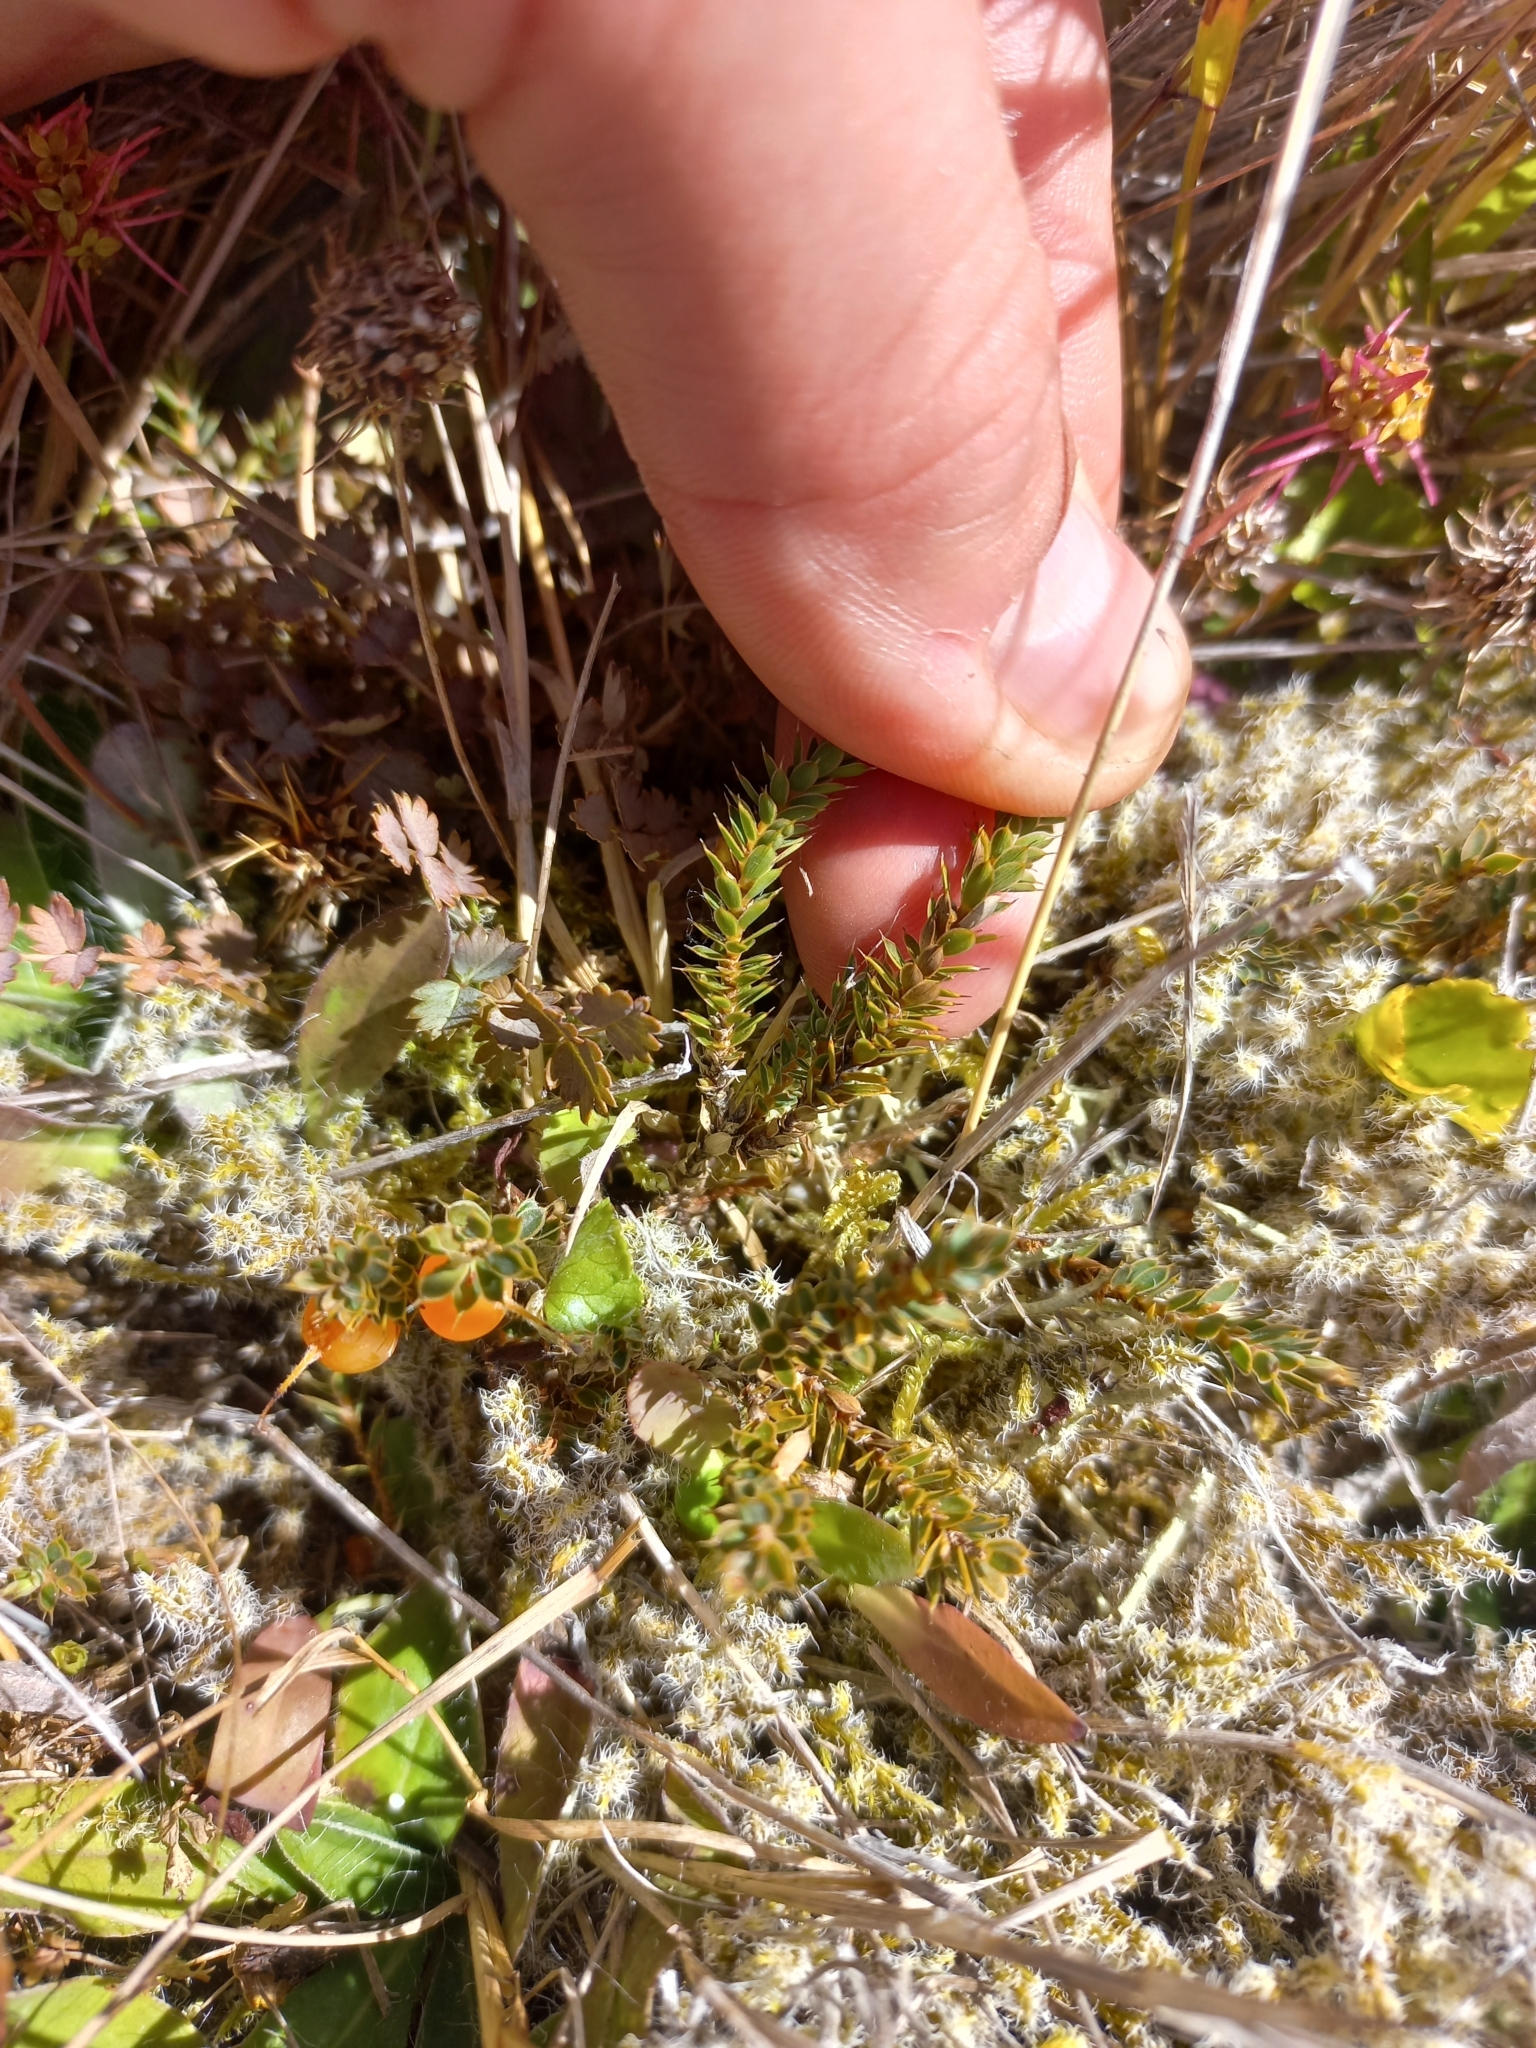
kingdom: Plantae
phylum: Tracheophyta
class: Magnoliopsida
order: Ericales
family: Ericaceae
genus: Styphelia
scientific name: Styphelia nesophila
